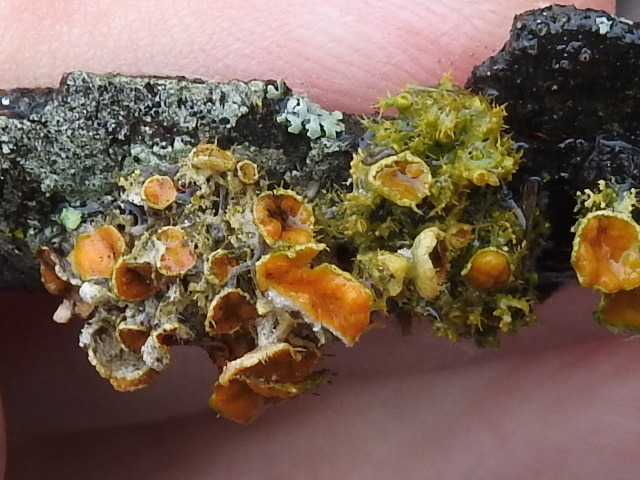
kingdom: Fungi
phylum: Ascomycota
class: Lecanoromycetes
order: Teloschistales
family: Teloschistaceae
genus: Niorma
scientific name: Niorma chrysophthalma
